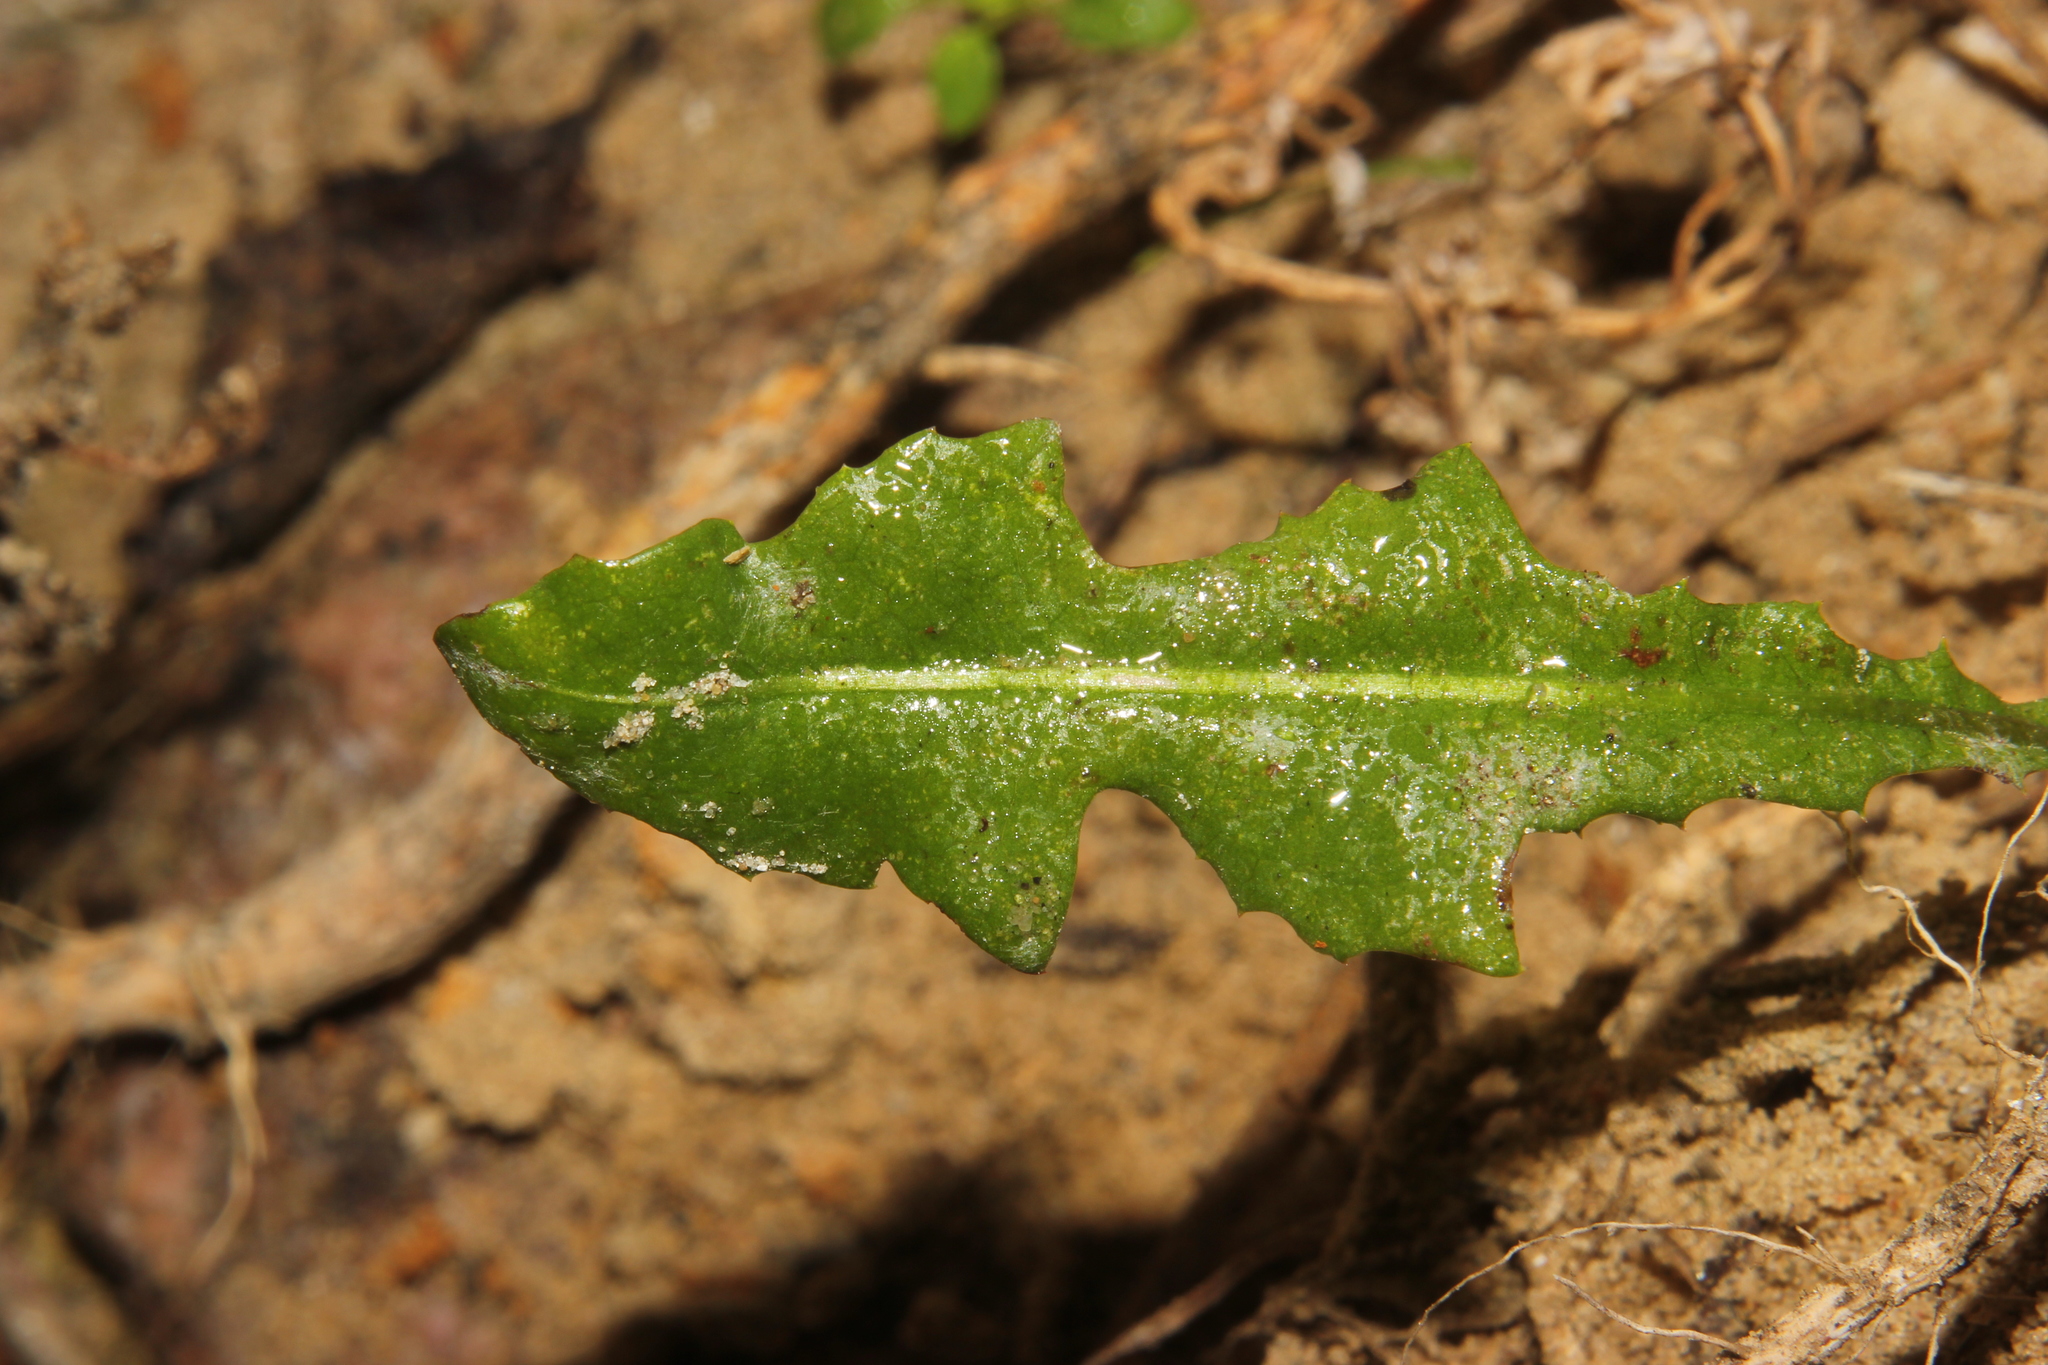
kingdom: Plantae
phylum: Tracheophyta
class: Magnoliopsida
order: Asterales
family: Asteraceae
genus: Taraxacum
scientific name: Taraxacum officinale
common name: Common dandelion
